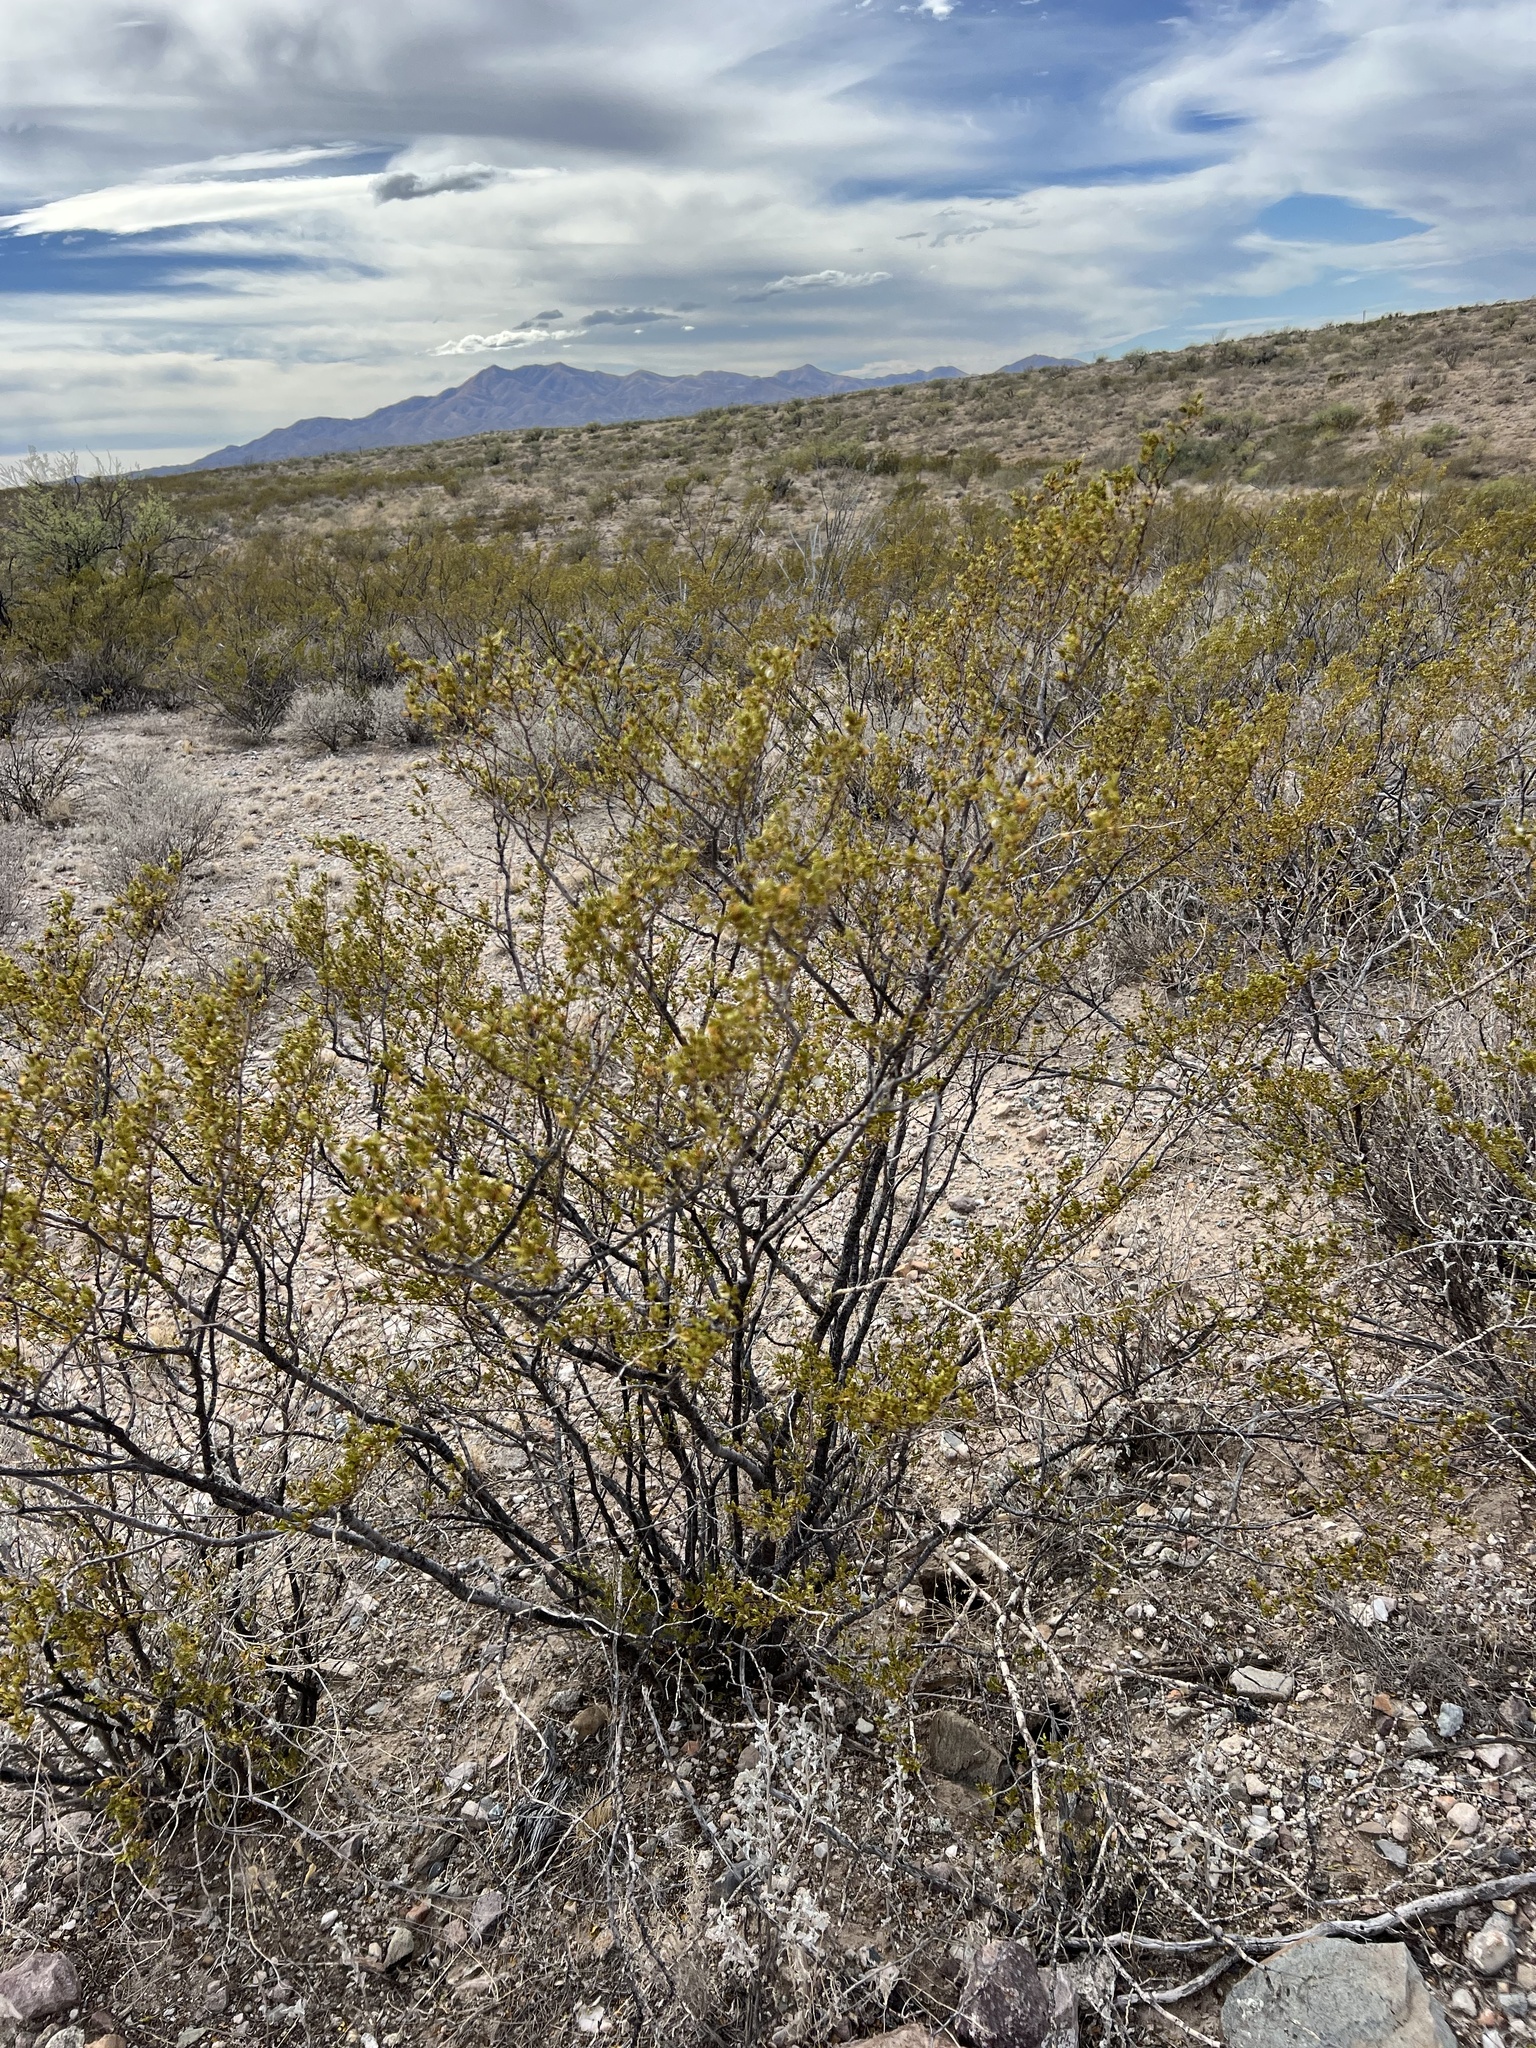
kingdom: Plantae
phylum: Tracheophyta
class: Magnoliopsida
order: Zygophyllales
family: Zygophyllaceae
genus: Larrea
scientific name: Larrea tridentata
